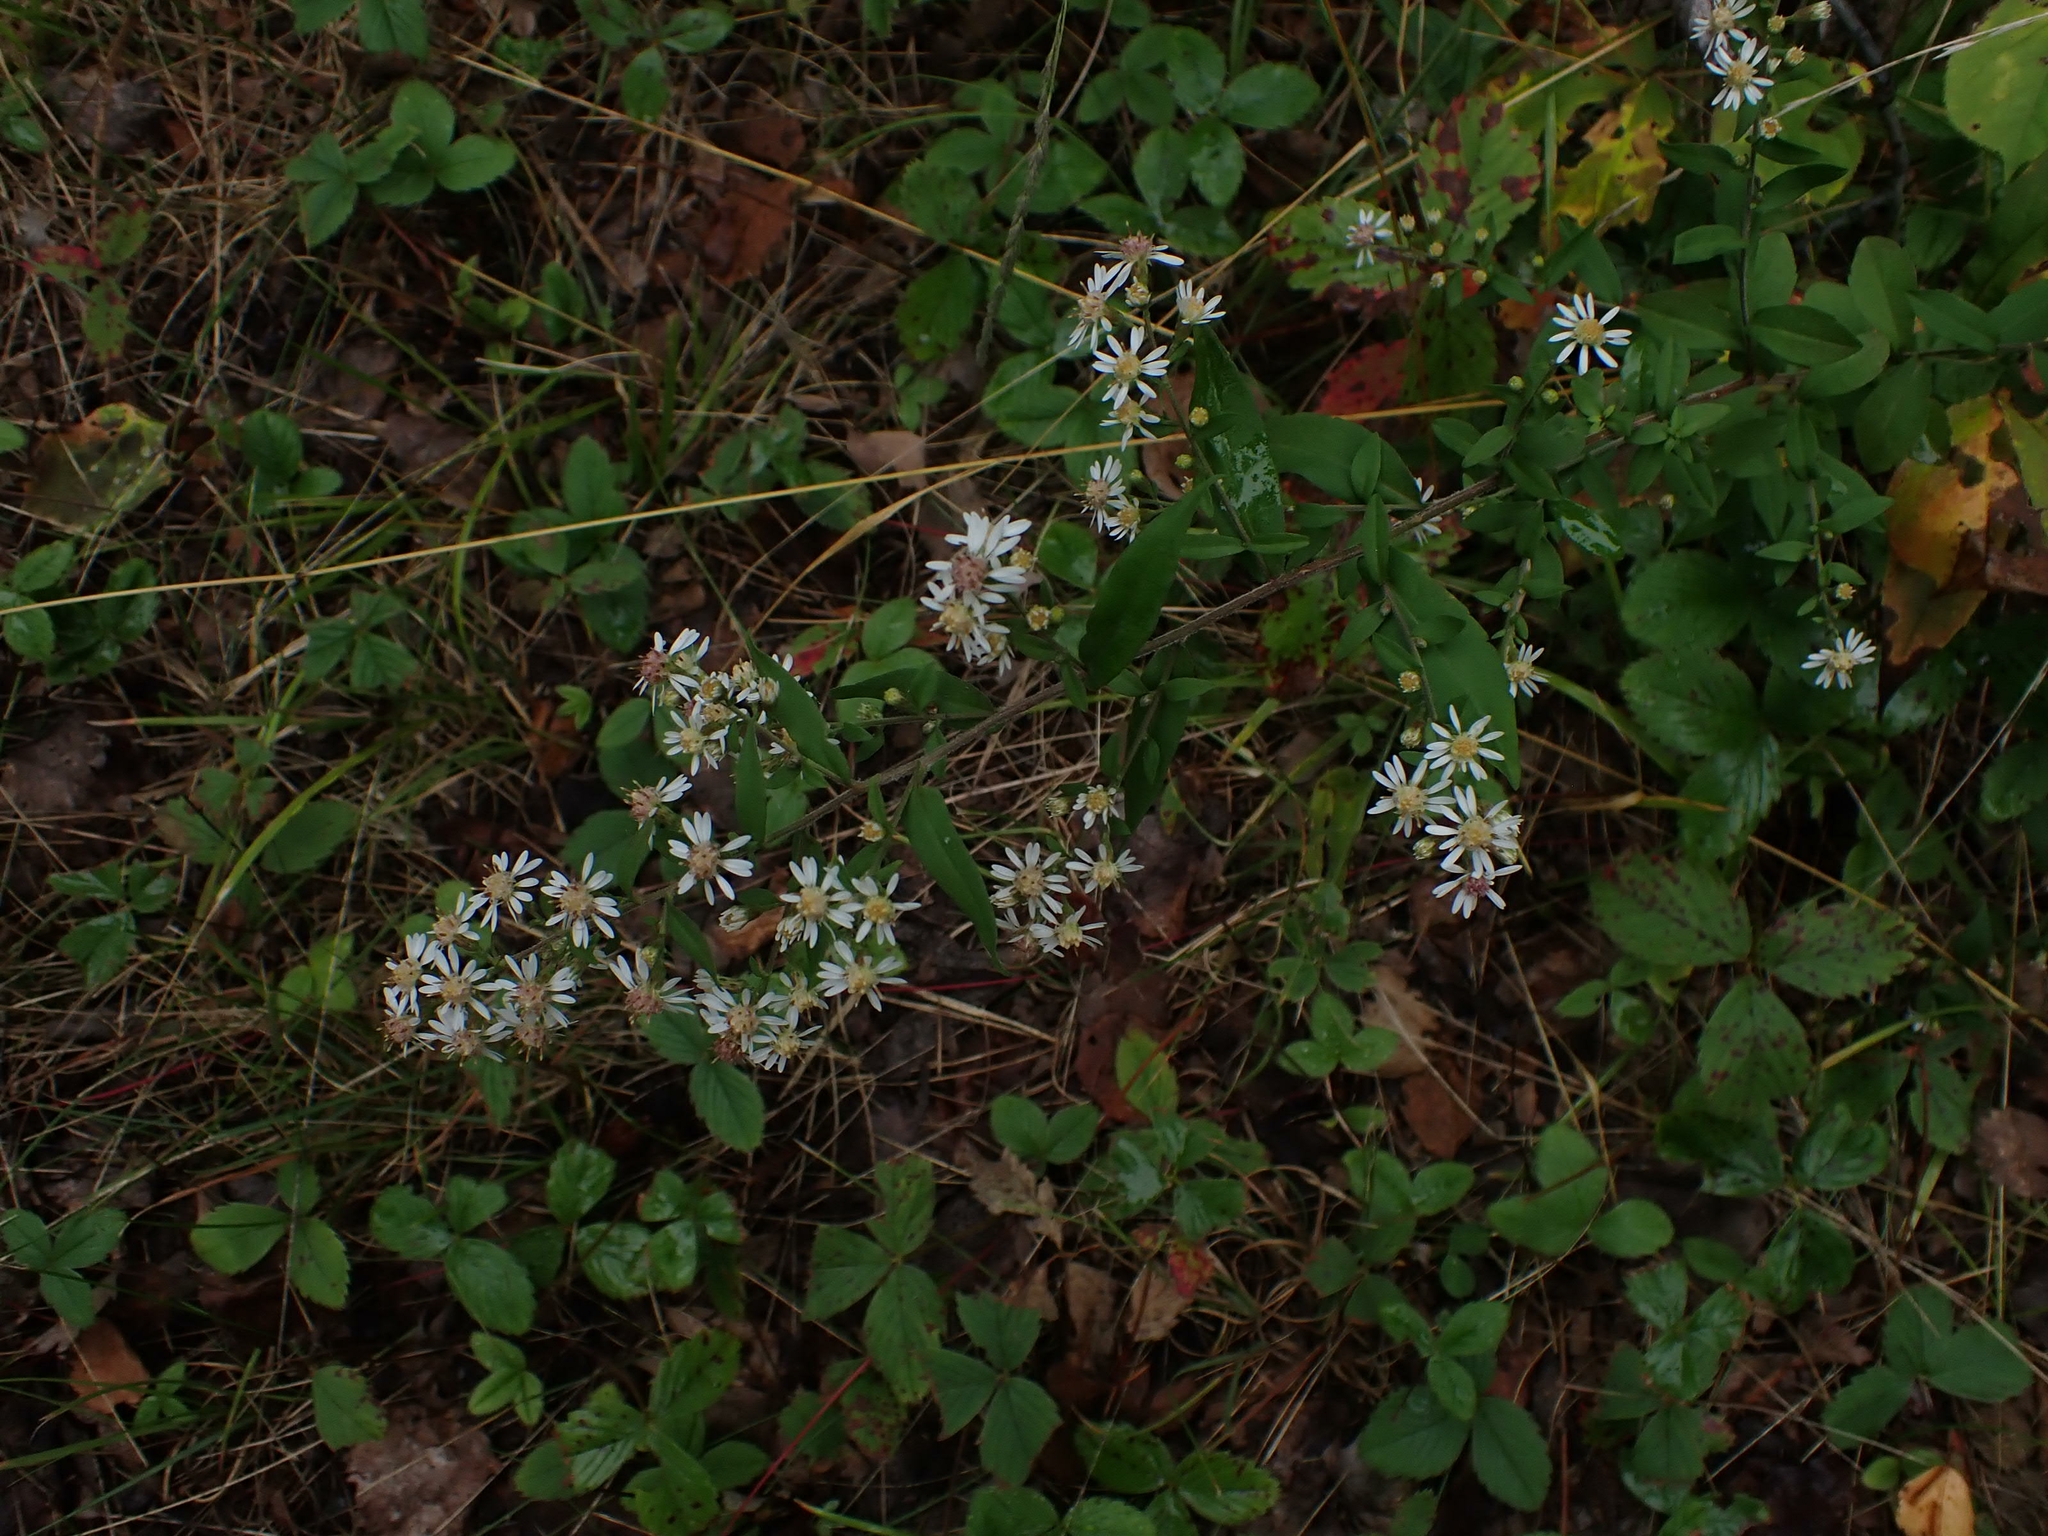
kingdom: Plantae
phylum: Tracheophyta
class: Magnoliopsida
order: Asterales
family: Asteraceae
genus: Symphyotrichum
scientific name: Symphyotrichum lateriflorum
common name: Calico aster
